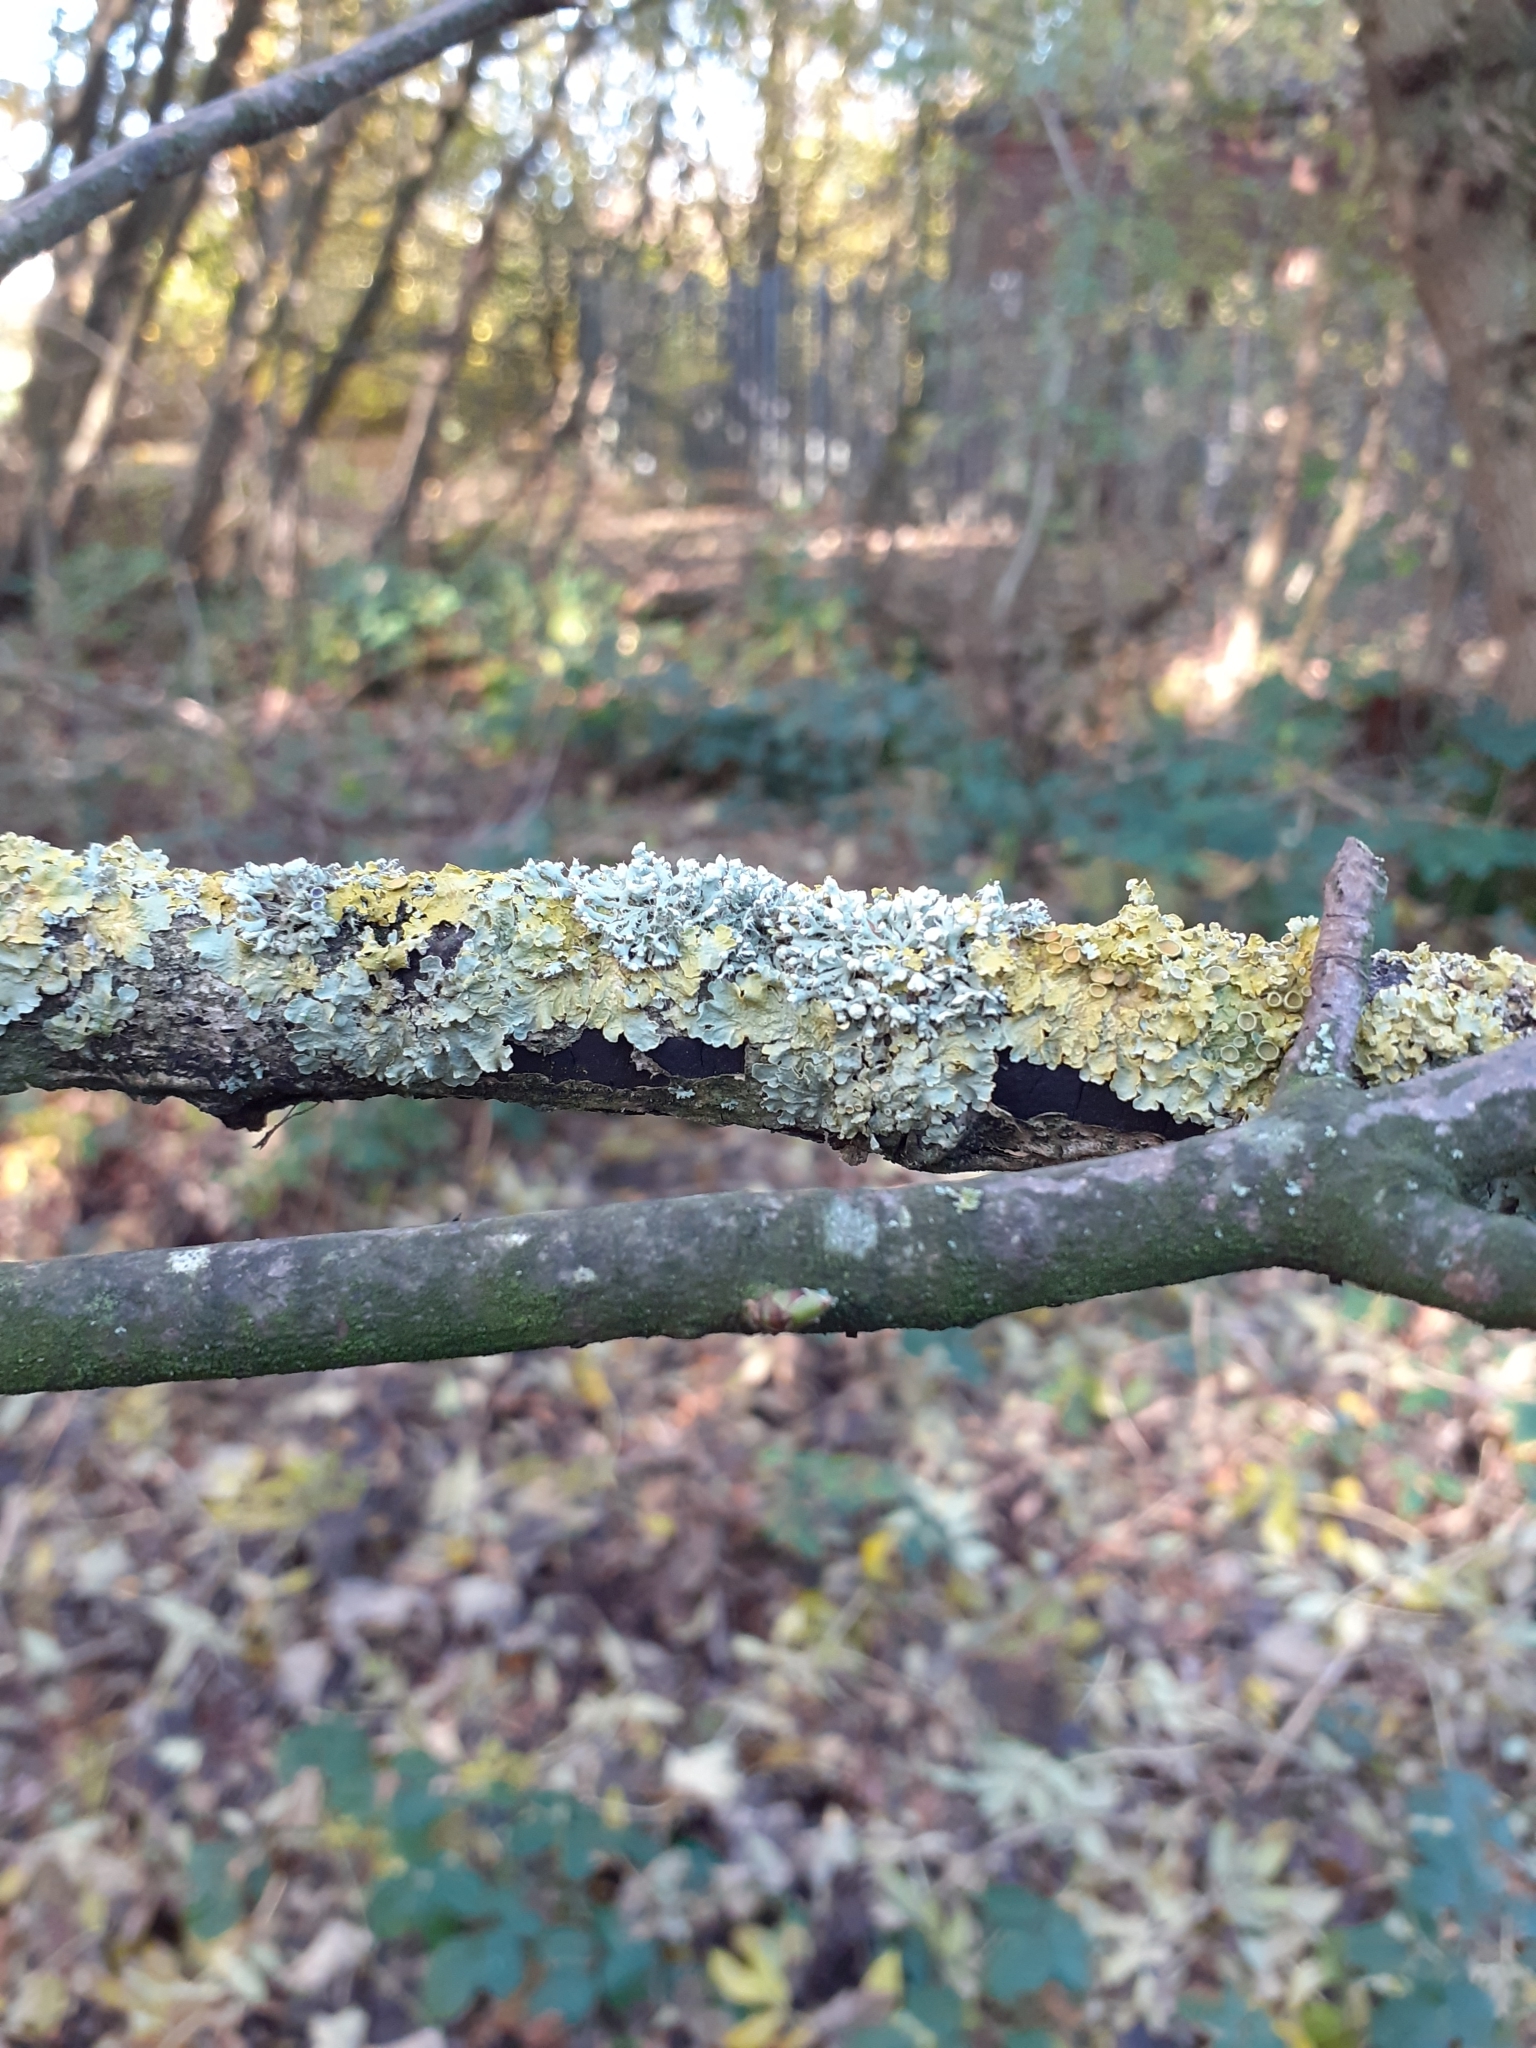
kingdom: Fungi
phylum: Ascomycota
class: Lecanoromycetes
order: Teloschistales
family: Teloschistaceae
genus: Xanthoria
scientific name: Xanthoria parietina
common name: Common orange lichen
